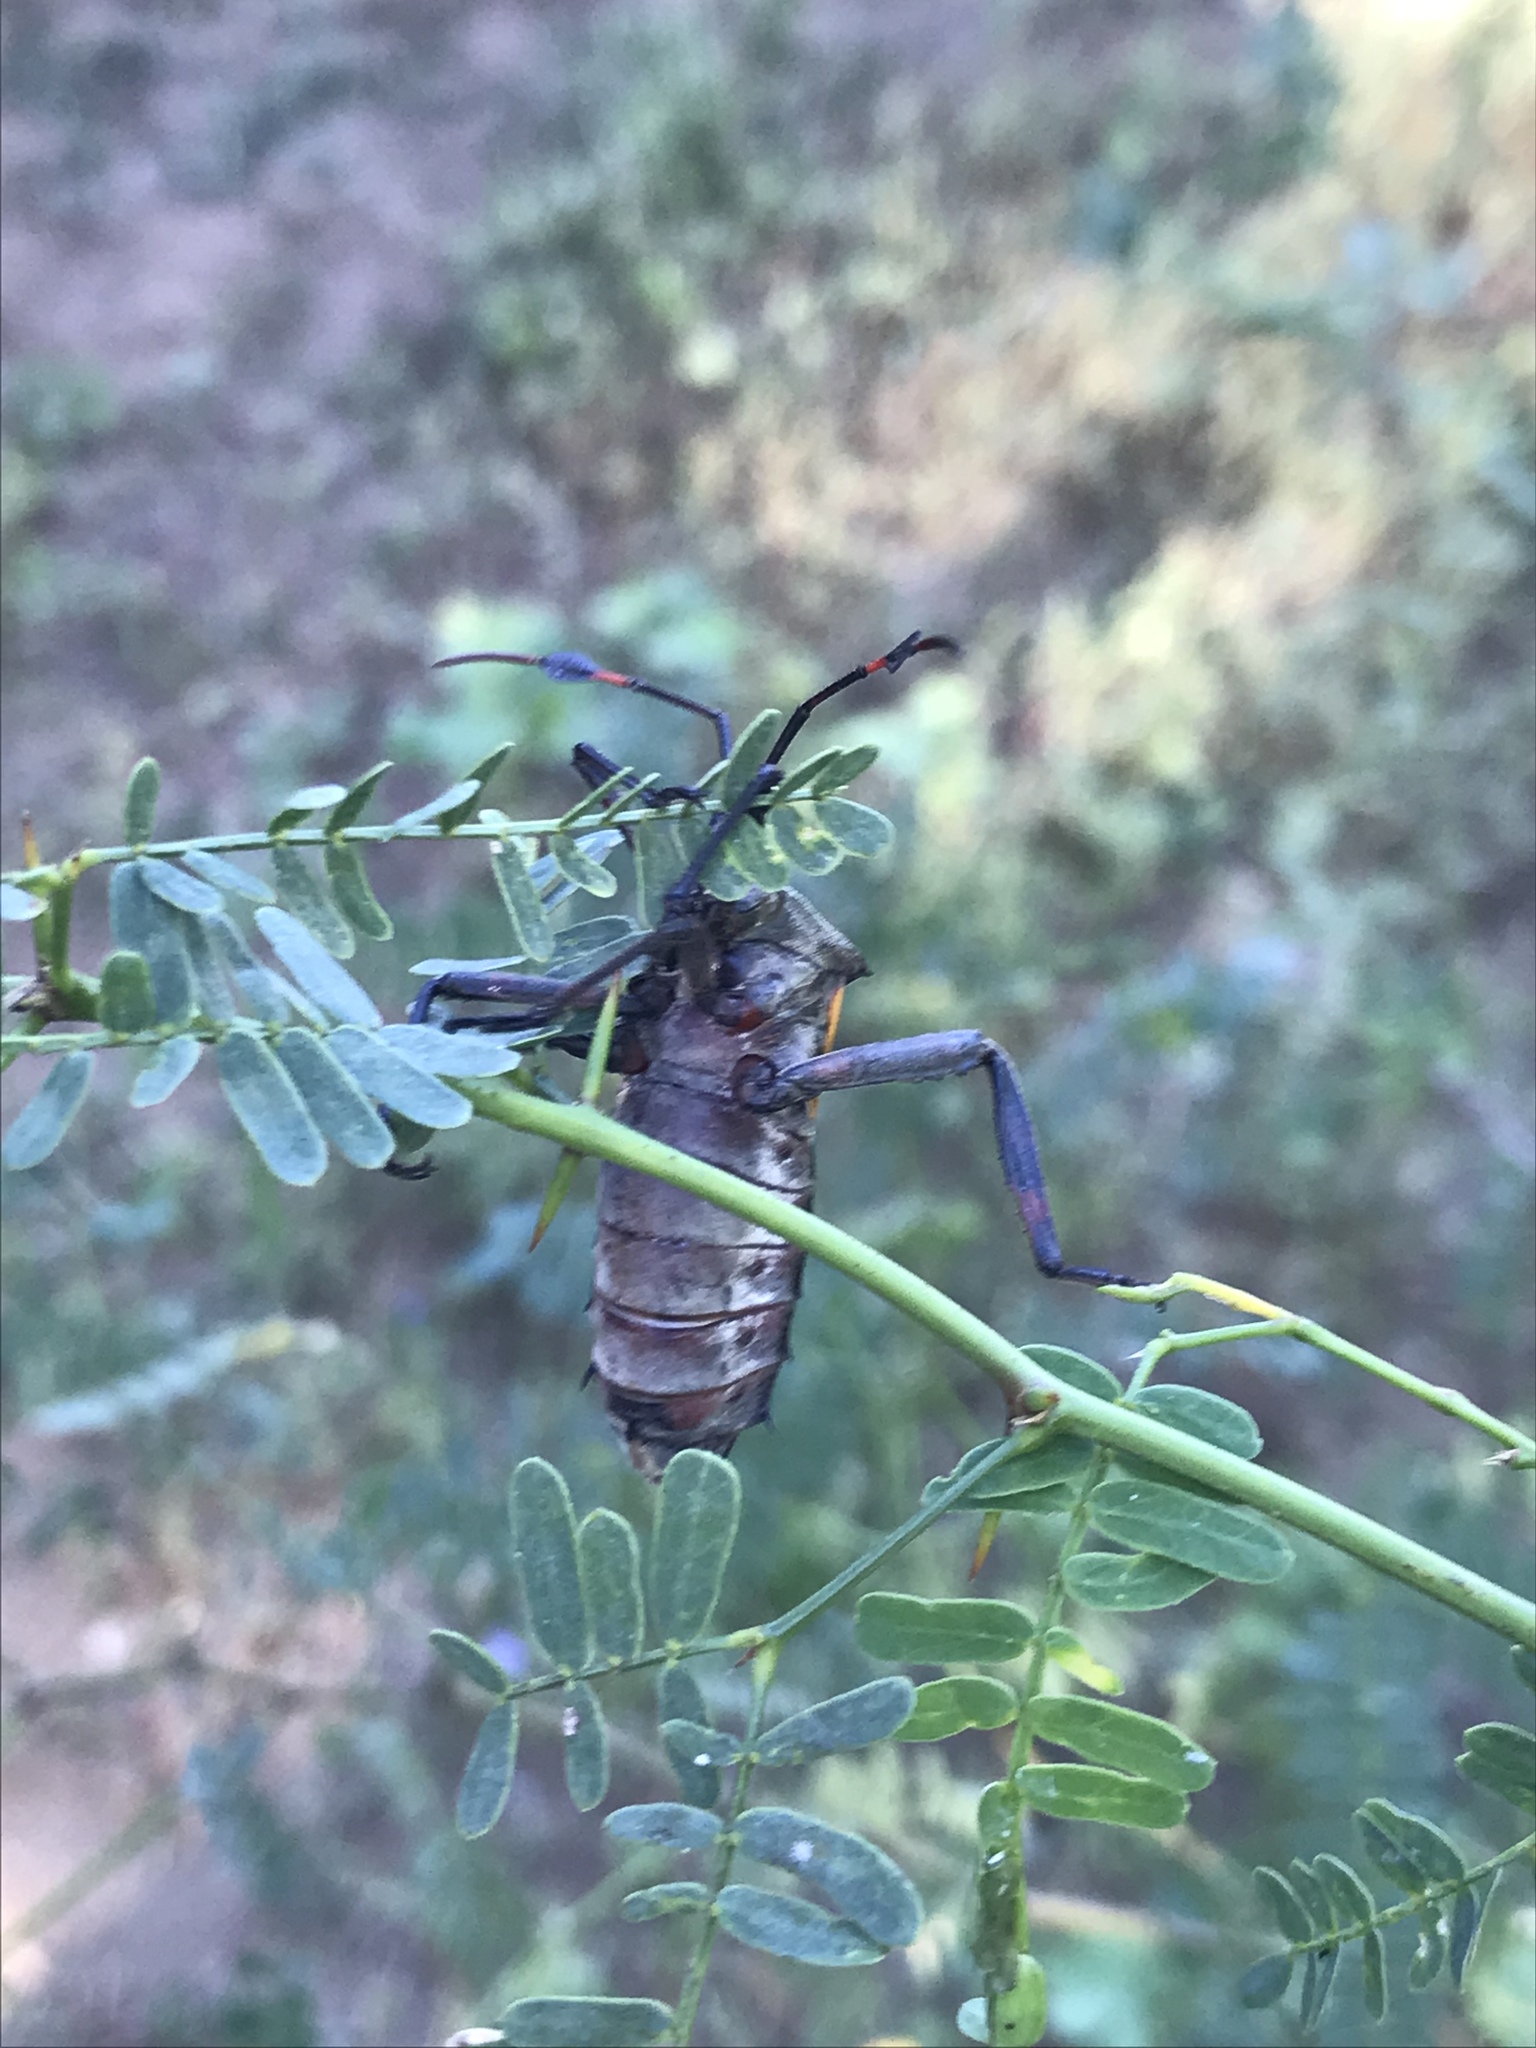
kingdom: Animalia
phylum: Arthropoda
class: Insecta
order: Hemiptera
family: Coreidae
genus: Thasus
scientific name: Thasus neocalifornicus
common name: Giant mesquite bug
